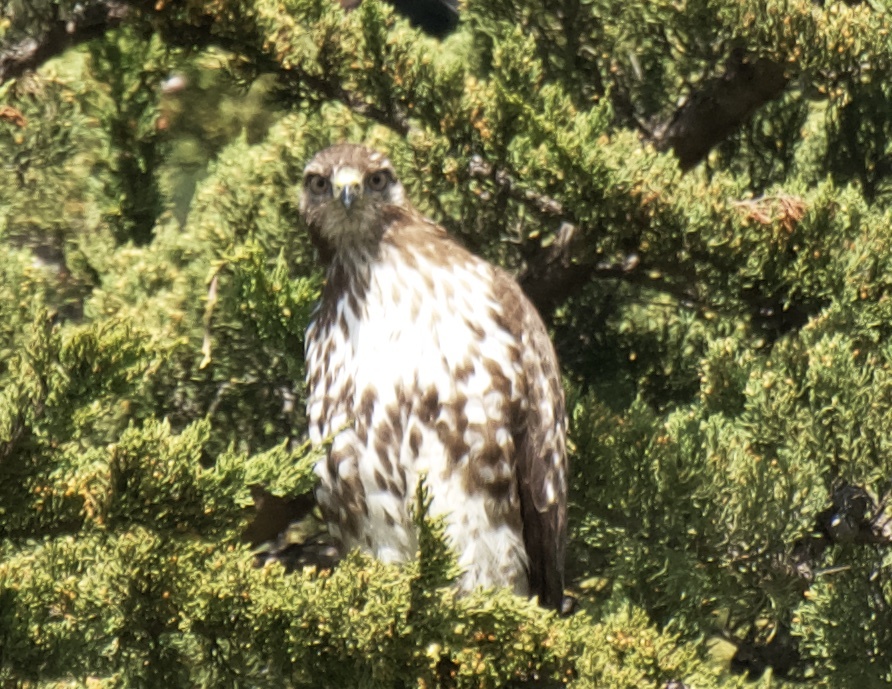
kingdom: Animalia
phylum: Chordata
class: Aves
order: Accipitriformes
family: Accipitridae
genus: Buteo
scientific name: Buteo jamaicensis
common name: Red-tailed hawk
